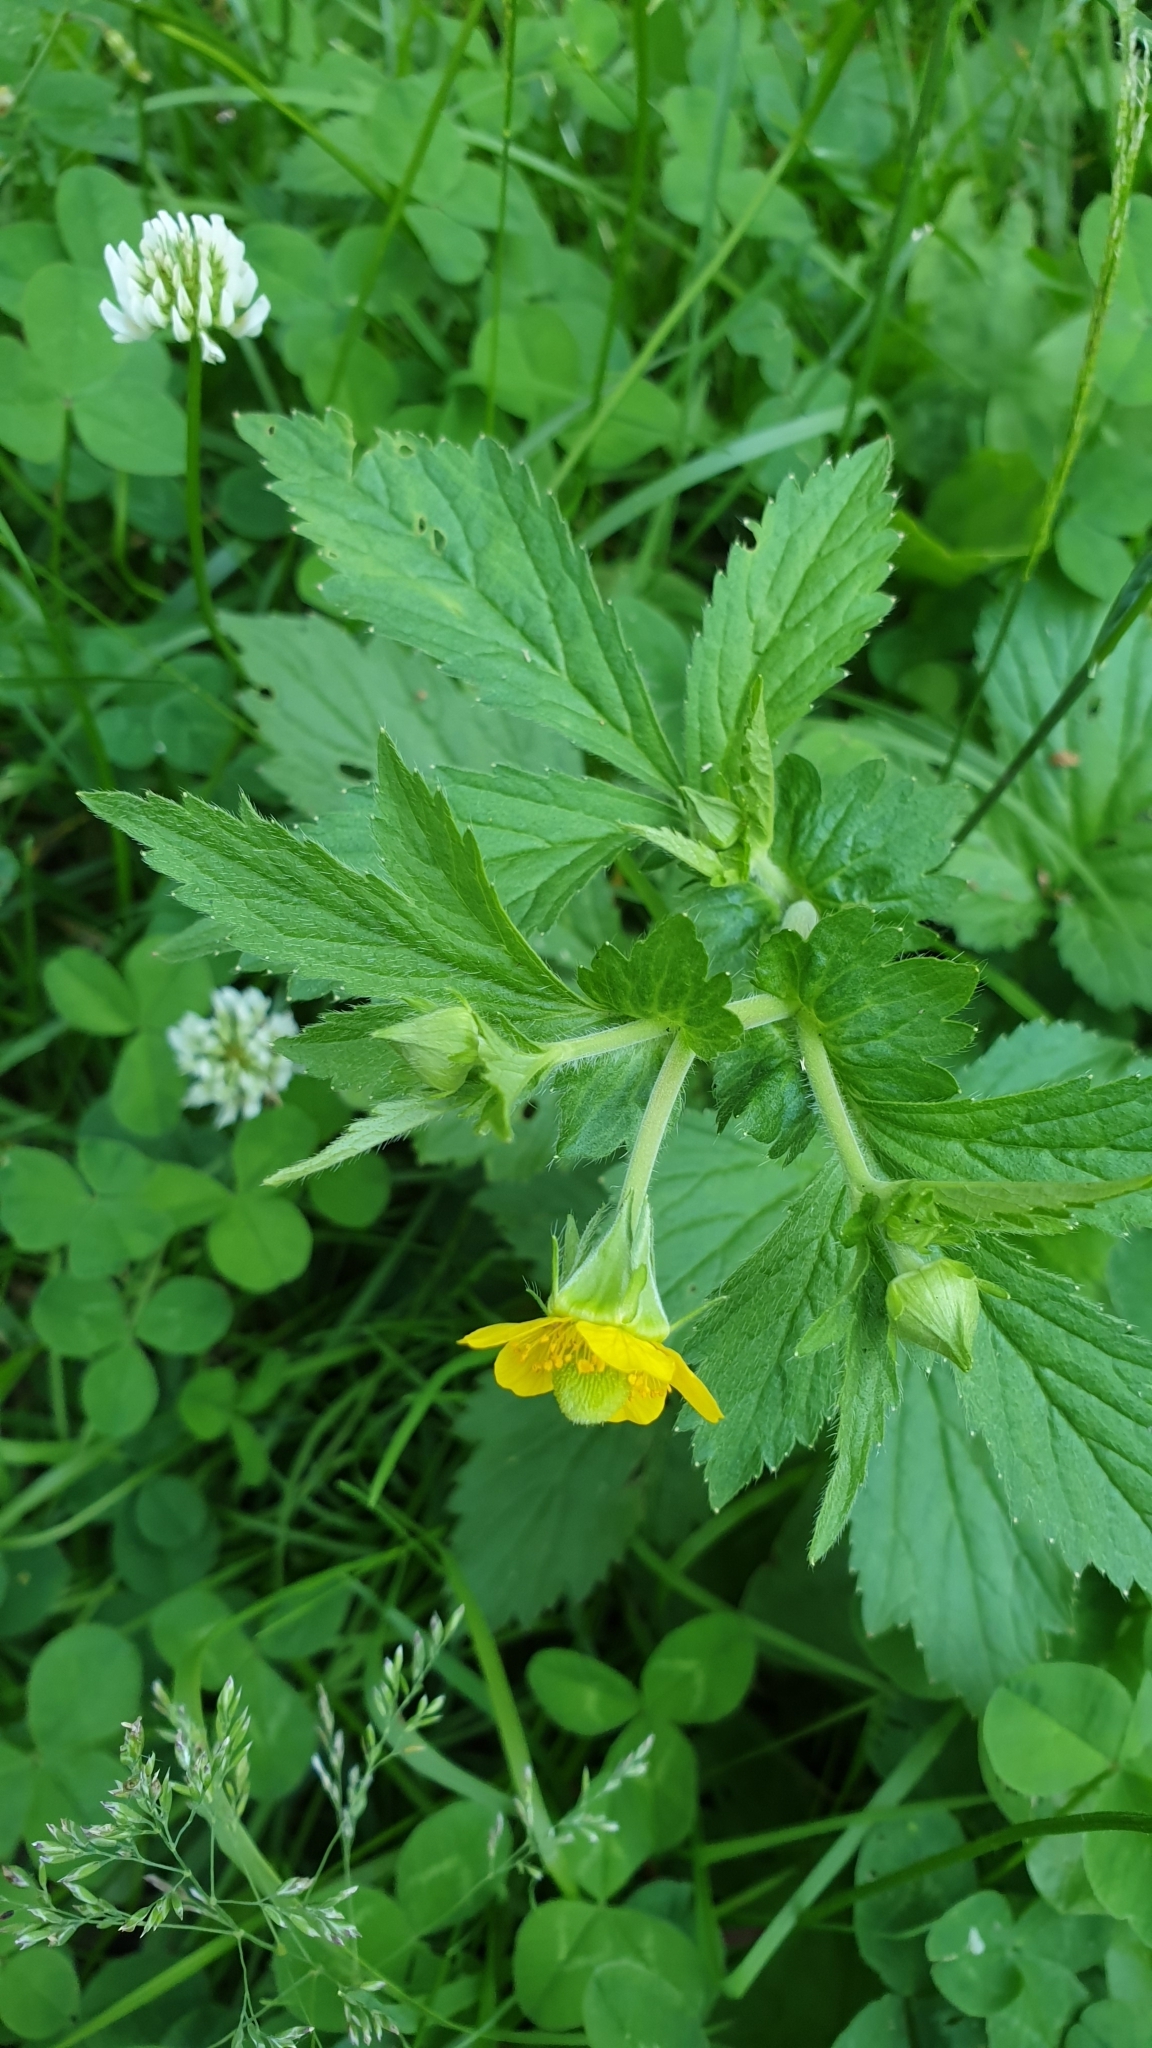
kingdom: Plantae
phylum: Tracheophyta
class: Magnoliopsida
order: Rosales
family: Rosaceae
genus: Geum
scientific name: Geum aleppicum
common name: Yellow avens
